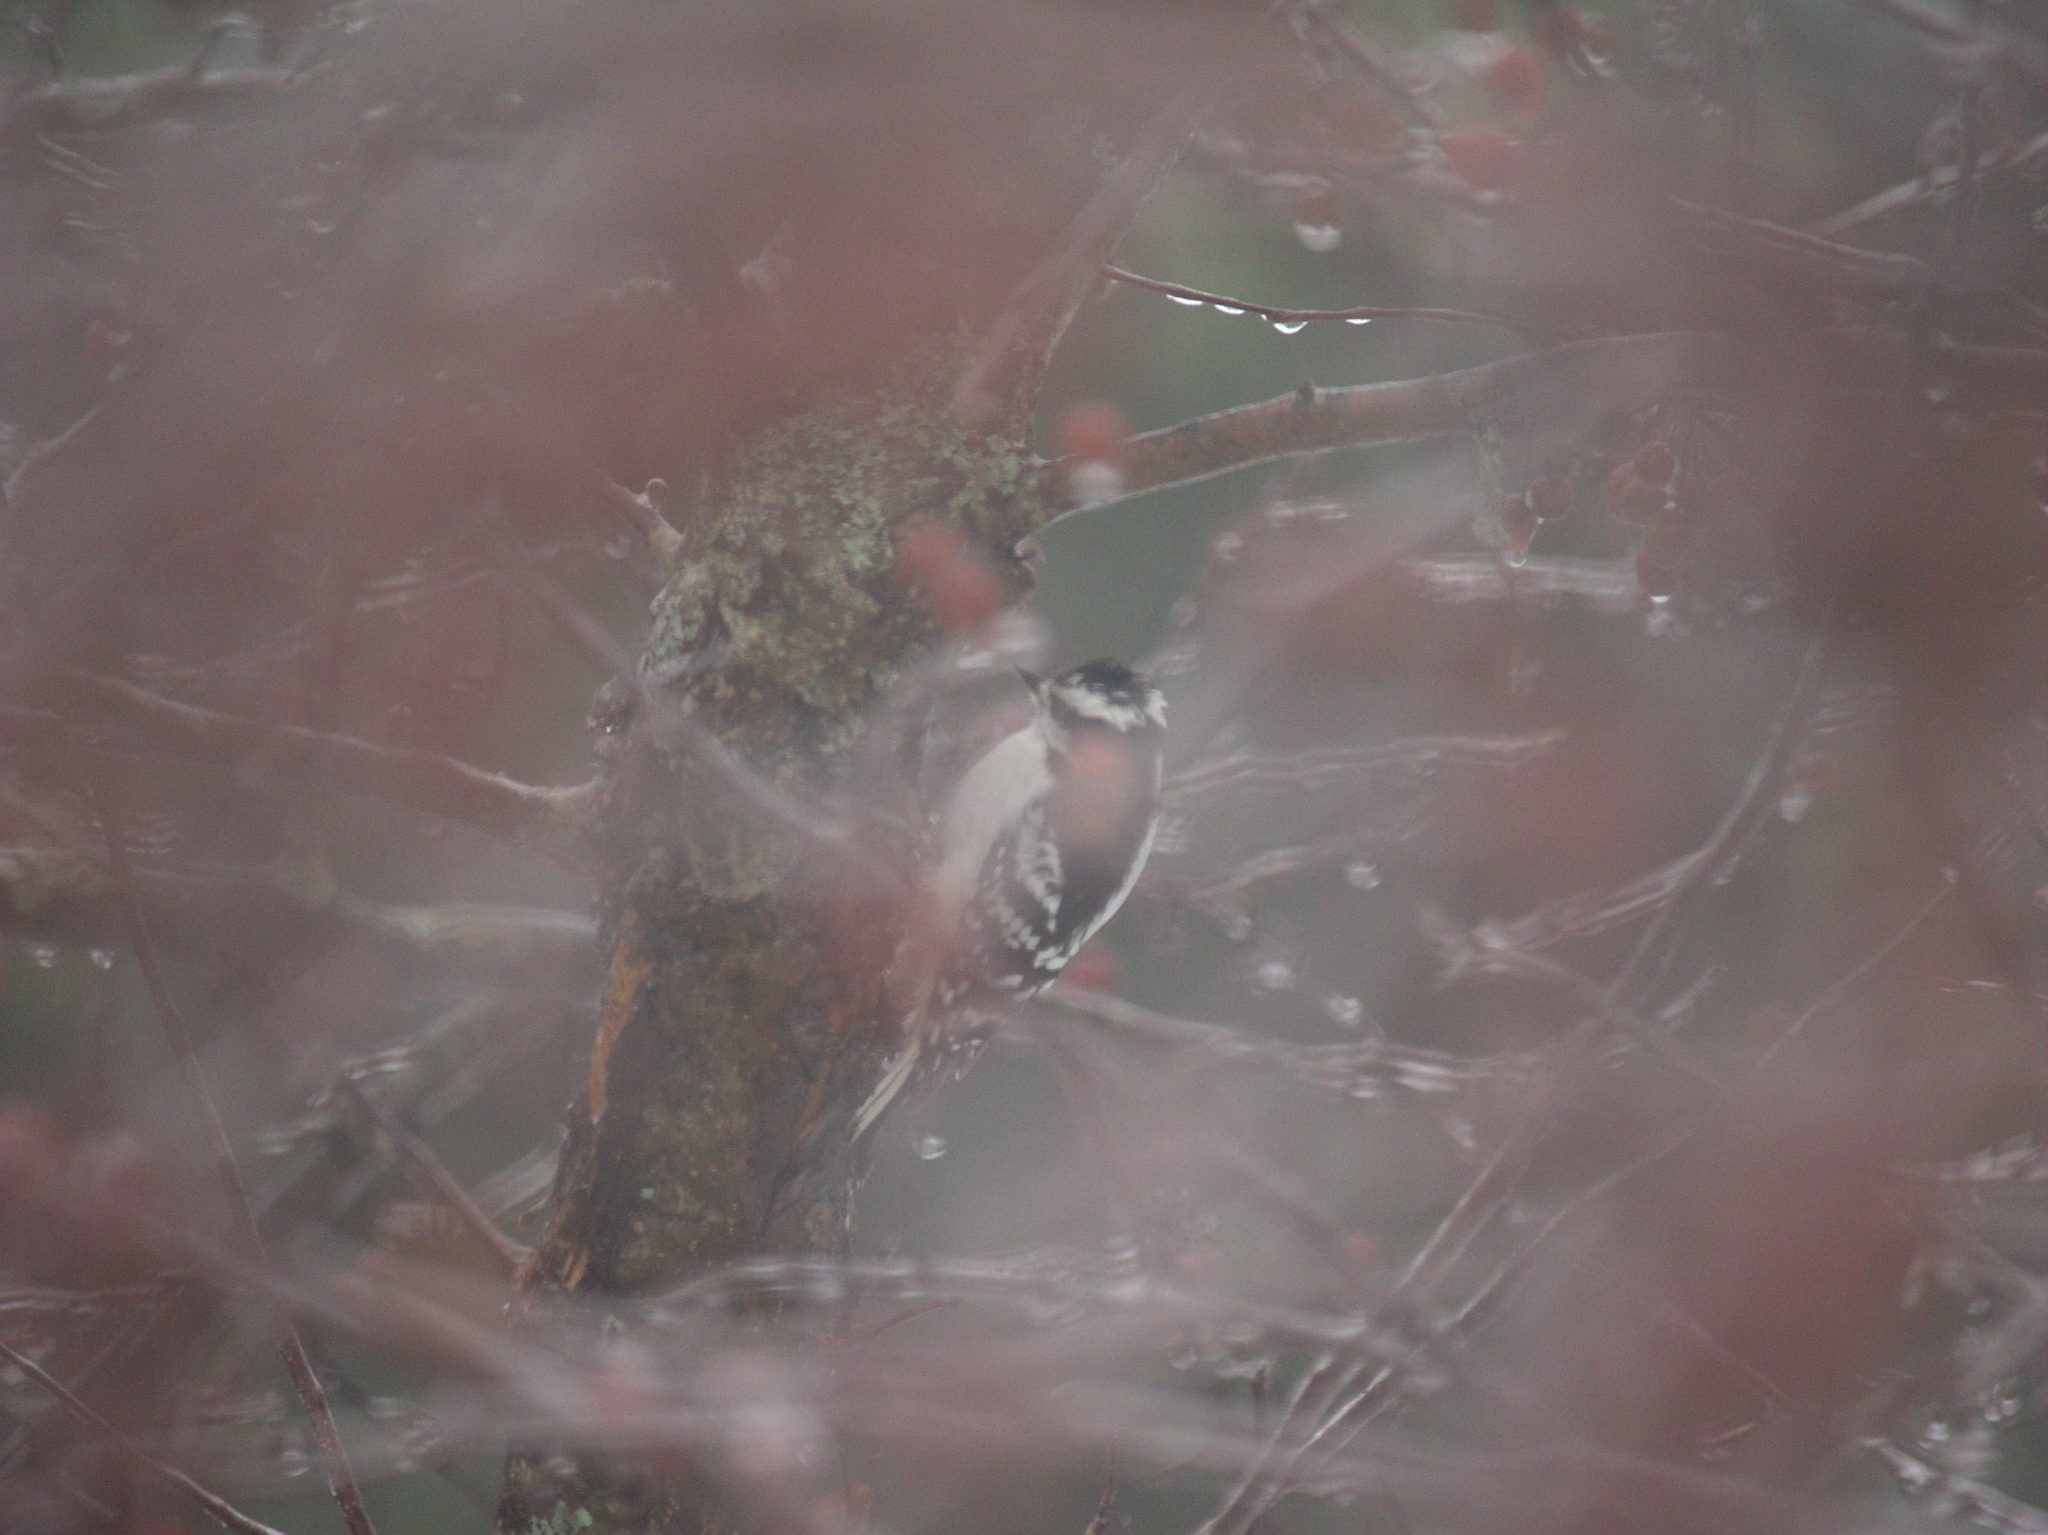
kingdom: Animalia
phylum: Chordata
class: Aves
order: Passeriformes
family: Paridae
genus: Poecile
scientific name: Poecile atricapillus
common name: Black-capped chickadee
